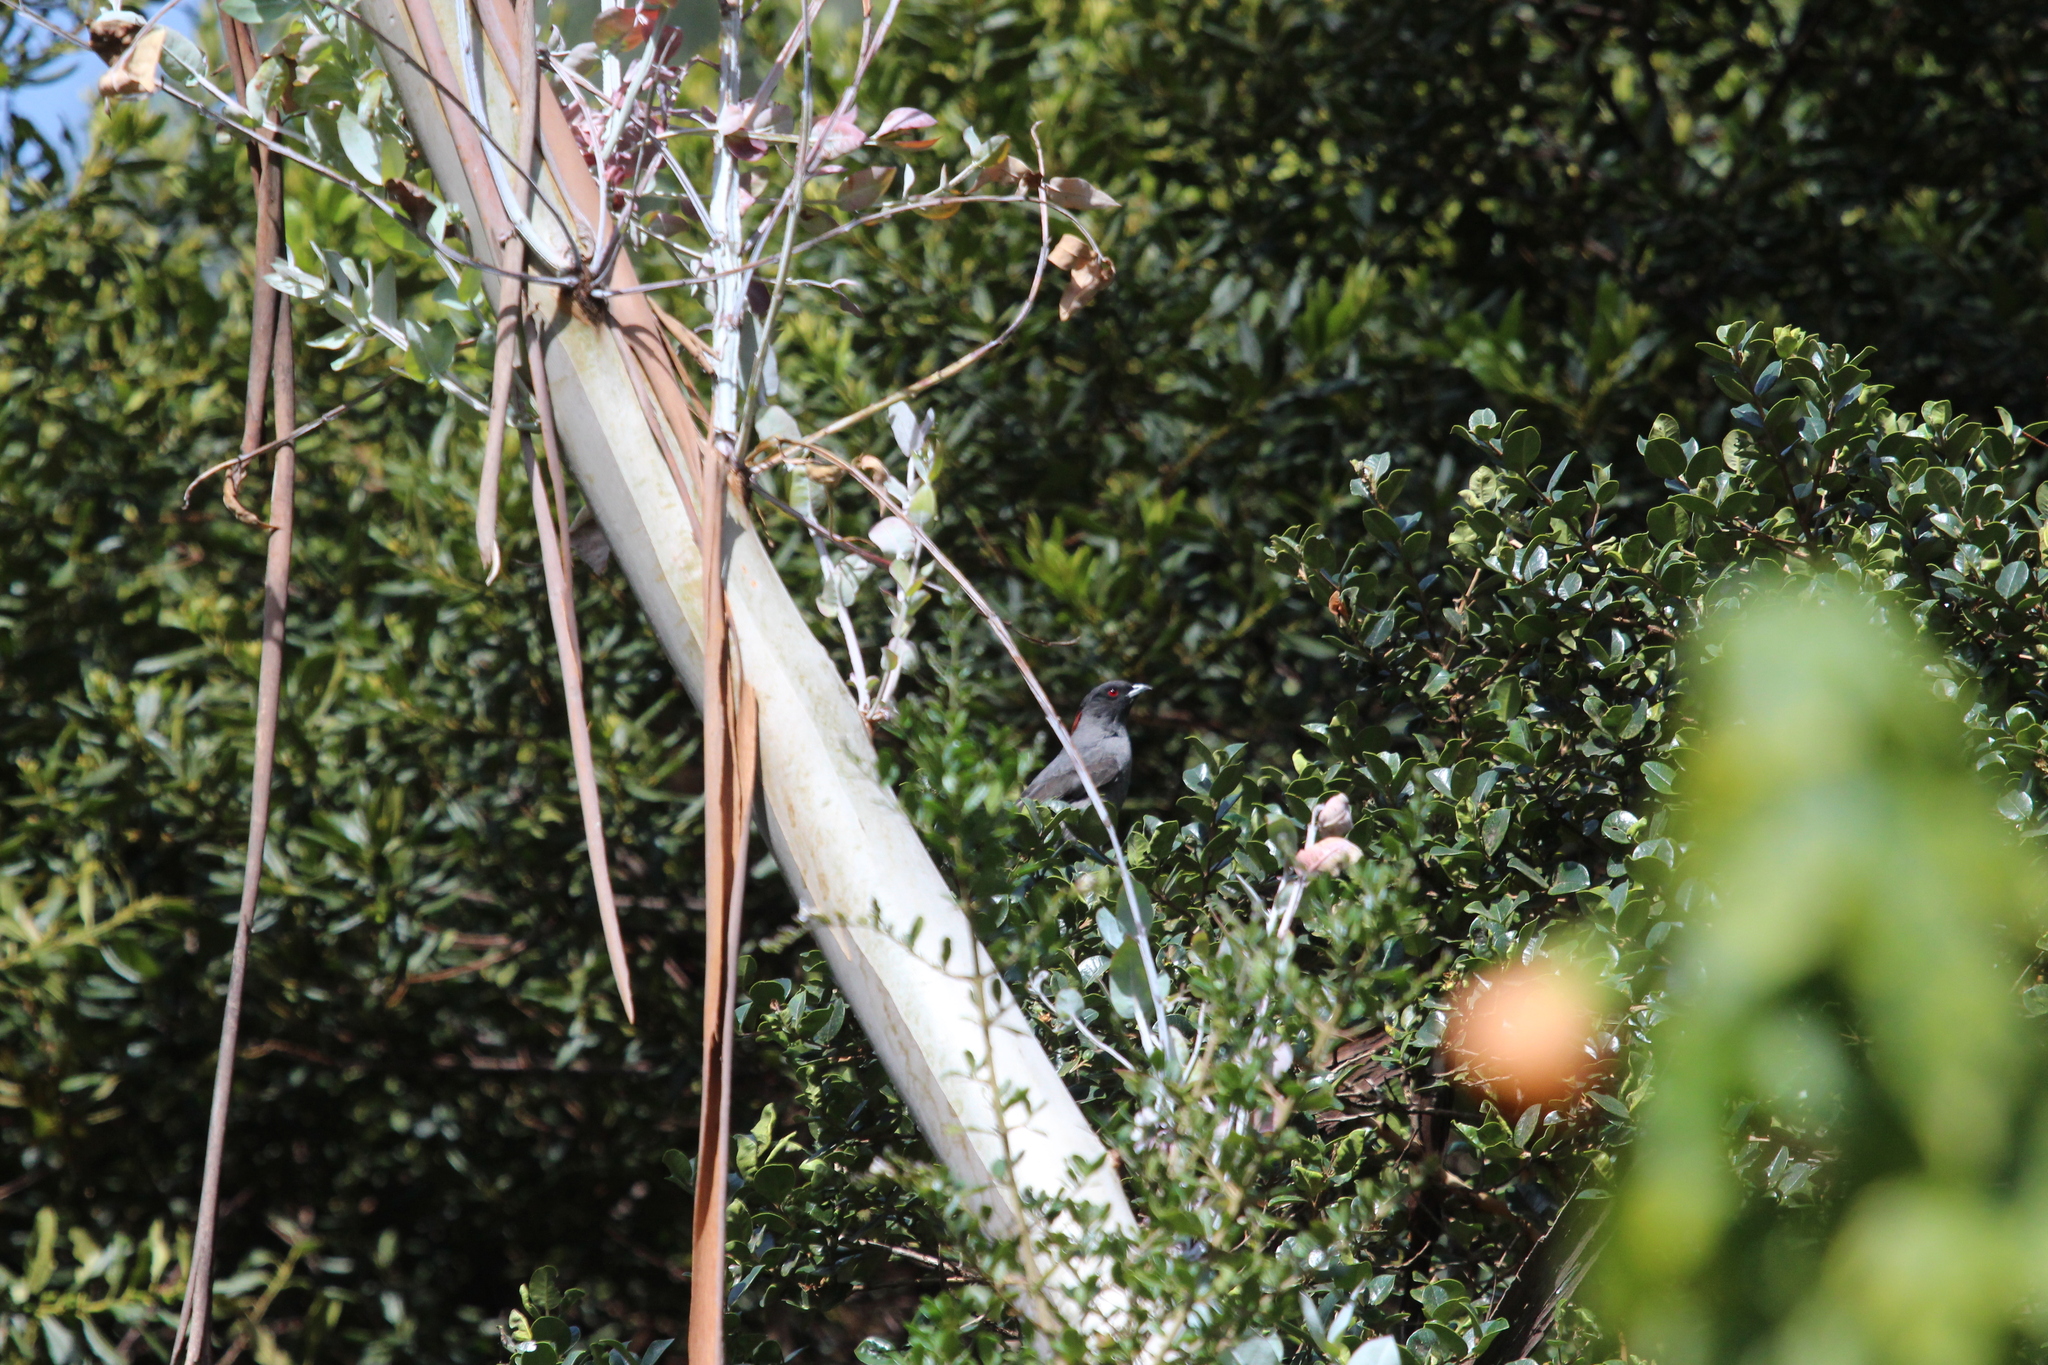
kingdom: Animalia
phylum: Chordata
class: Aves
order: Passeriformes
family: Cotingidae
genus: Ampelion
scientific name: Ampelion rubrocristatus
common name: Red-crested cotinga
